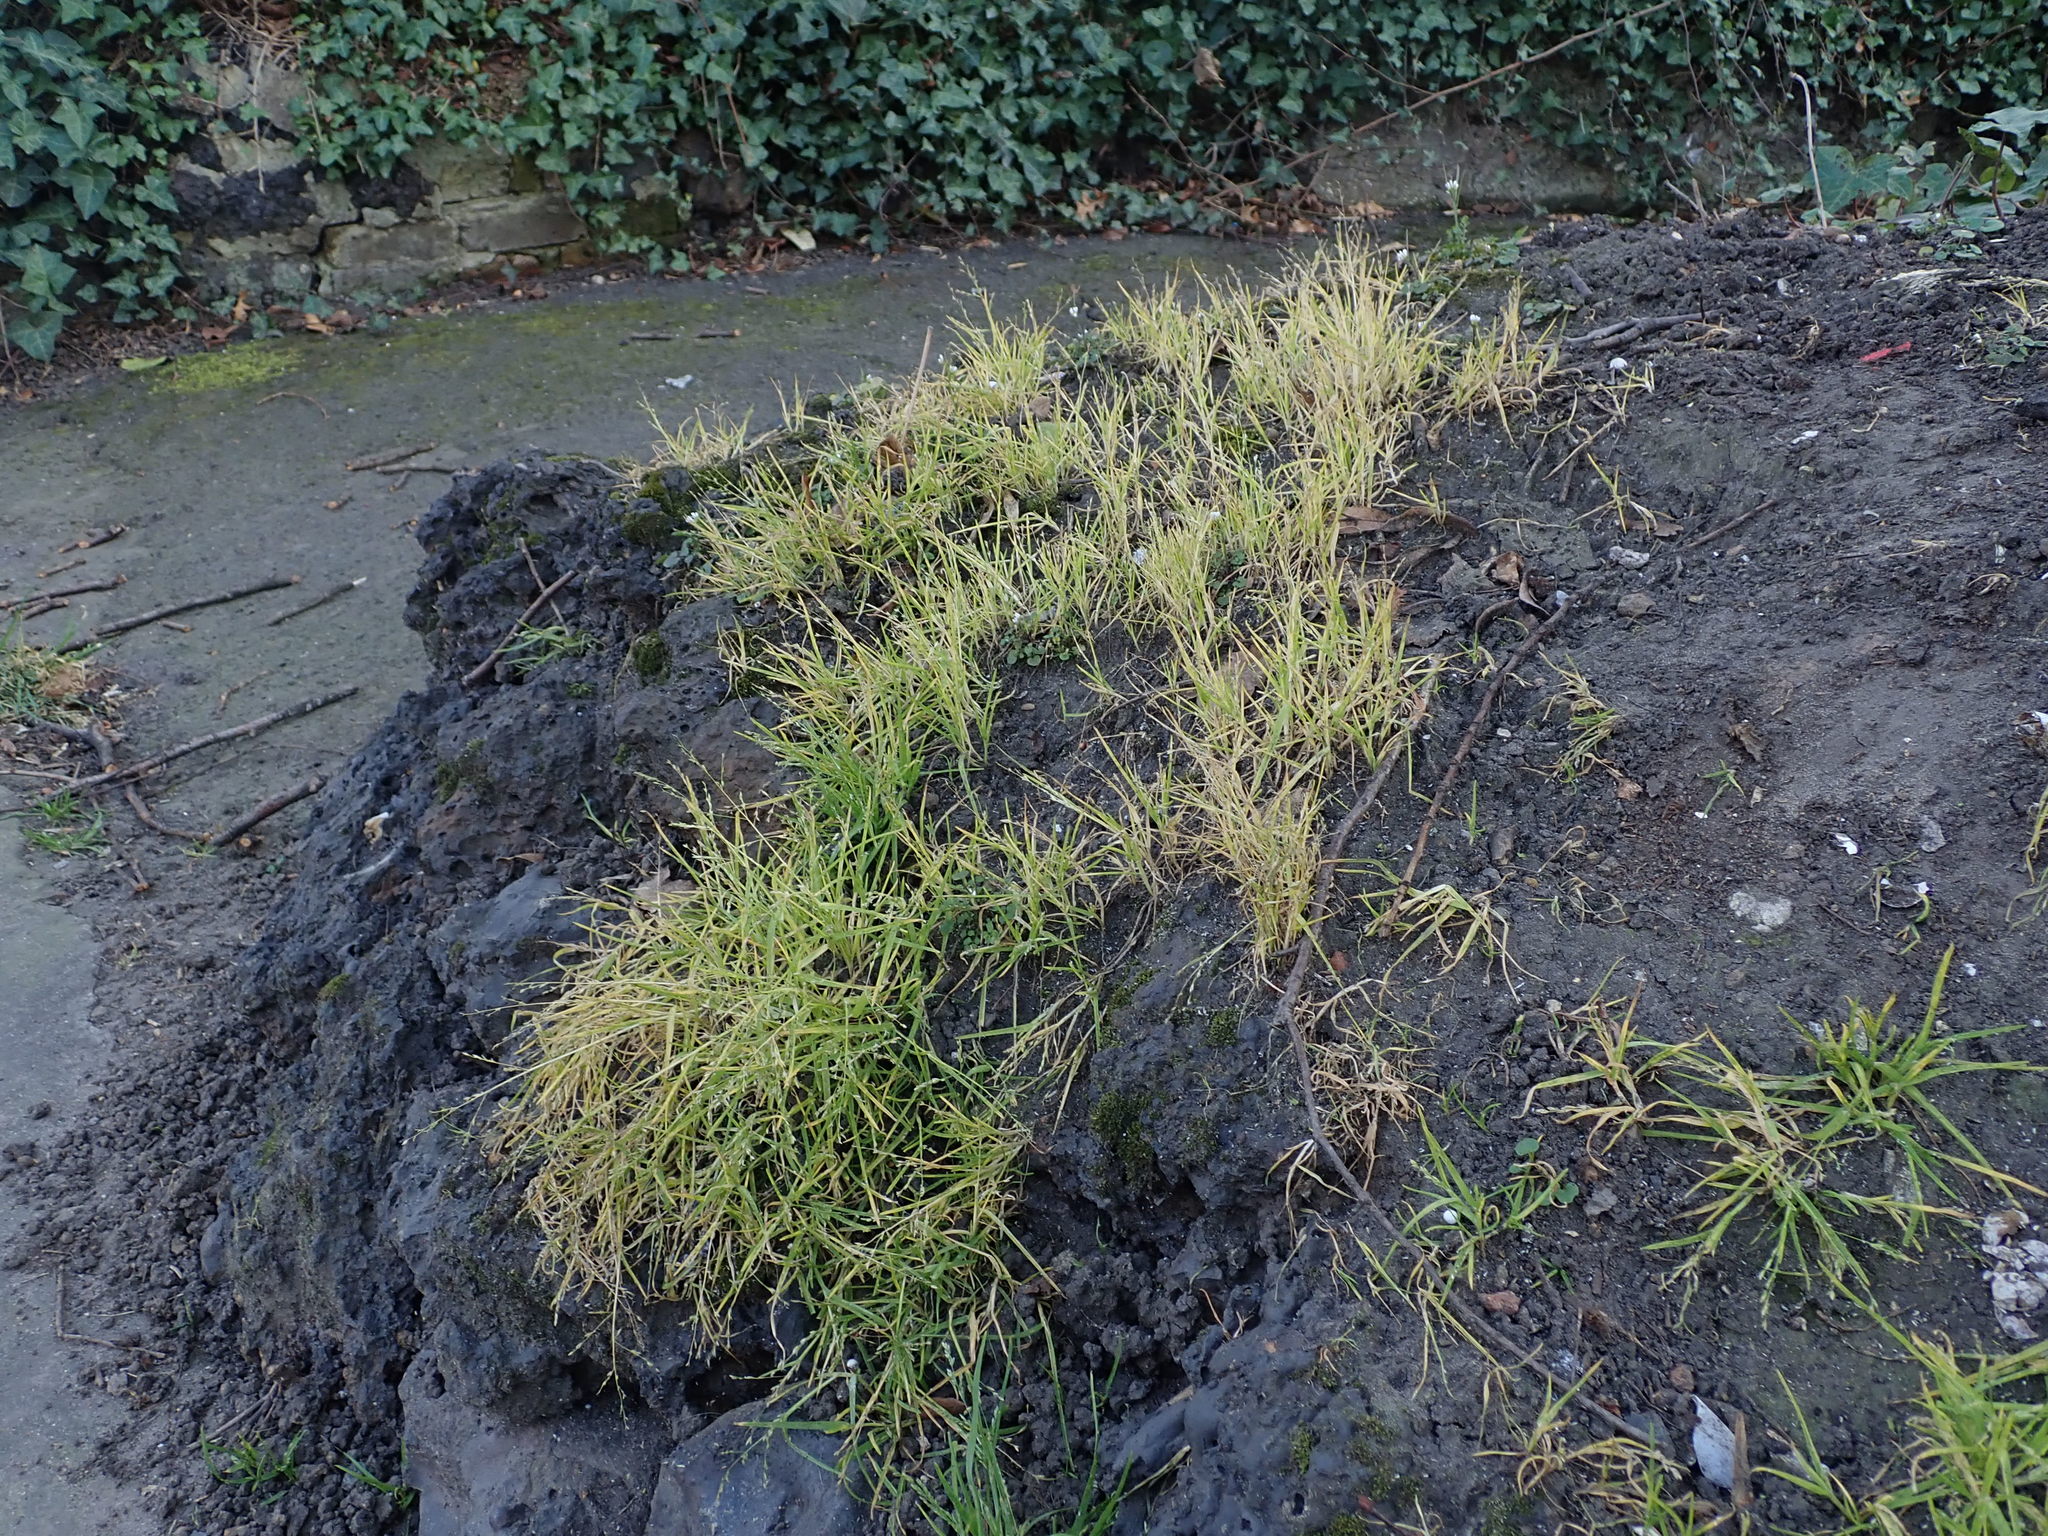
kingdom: Plantae
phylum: Tracheophyta
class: Liliopsida
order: Poales
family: Poaceae
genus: Poa
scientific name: Poa infirma
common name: Weak bluegrass
